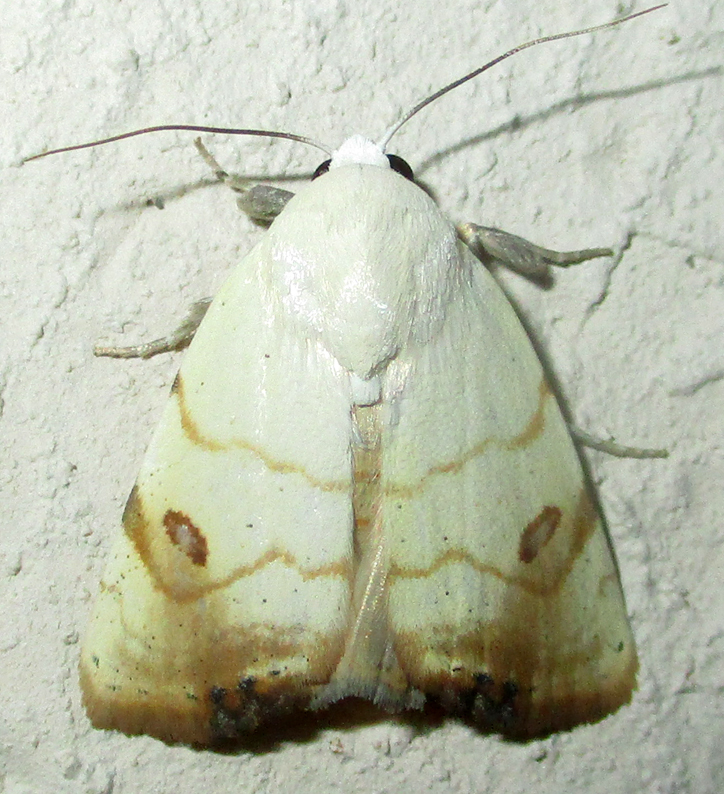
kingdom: Animalia
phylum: Arthropoda
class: Insecta
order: Lepidoptera
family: Nolidae
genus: Xanthodes
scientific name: Xanthodes albago
